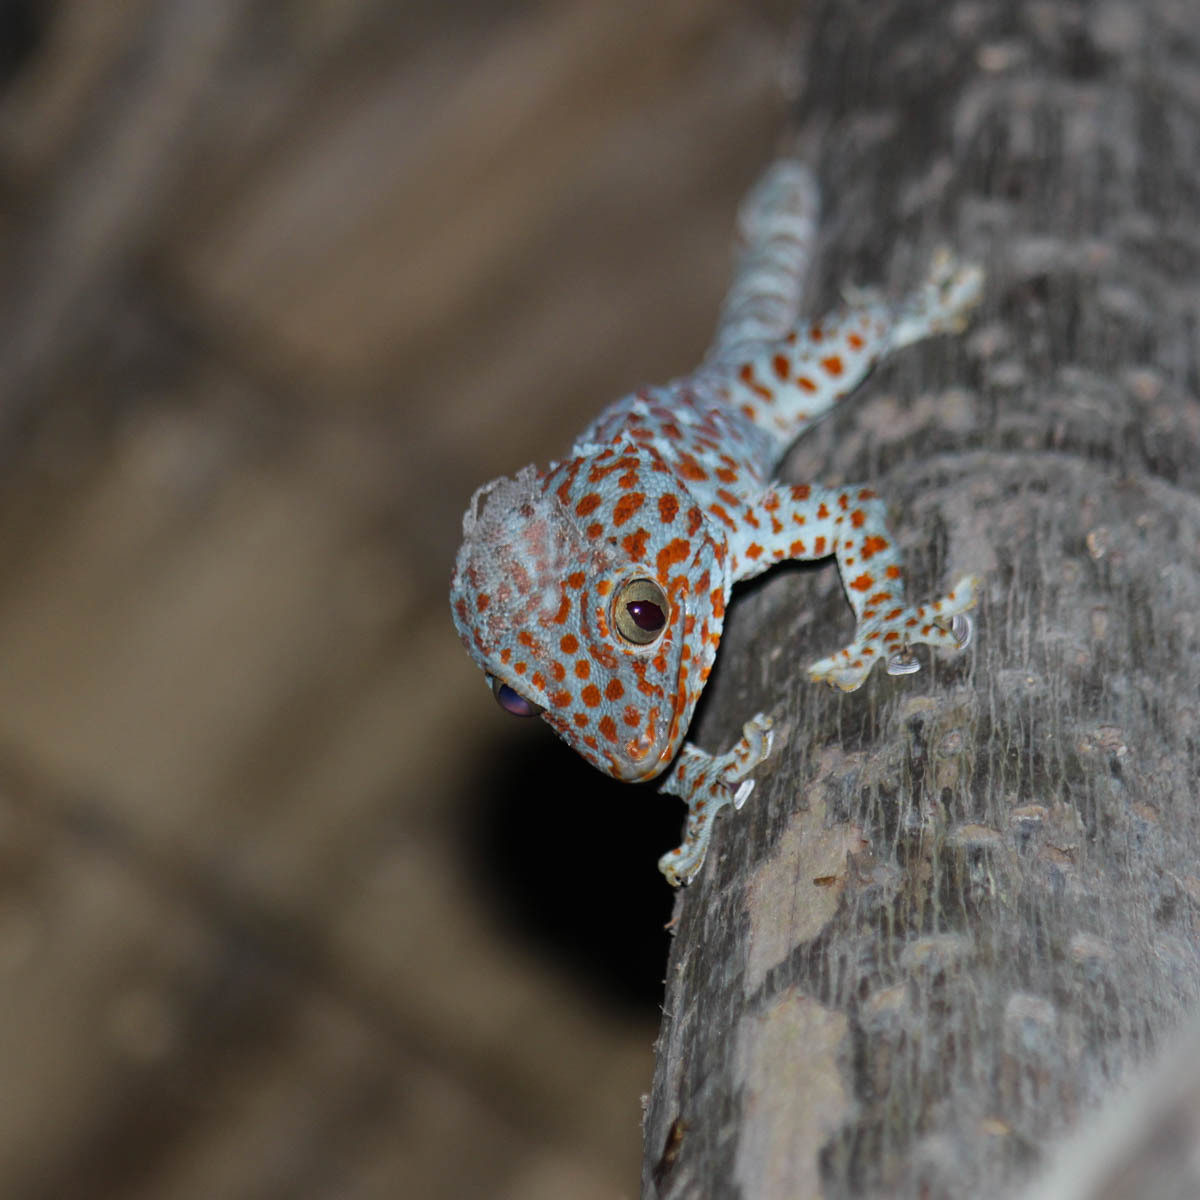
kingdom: Animalia
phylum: Chordata
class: Squamata
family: Gekkonidae
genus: Gekko
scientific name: Gekko gecko
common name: Tokay gecko
